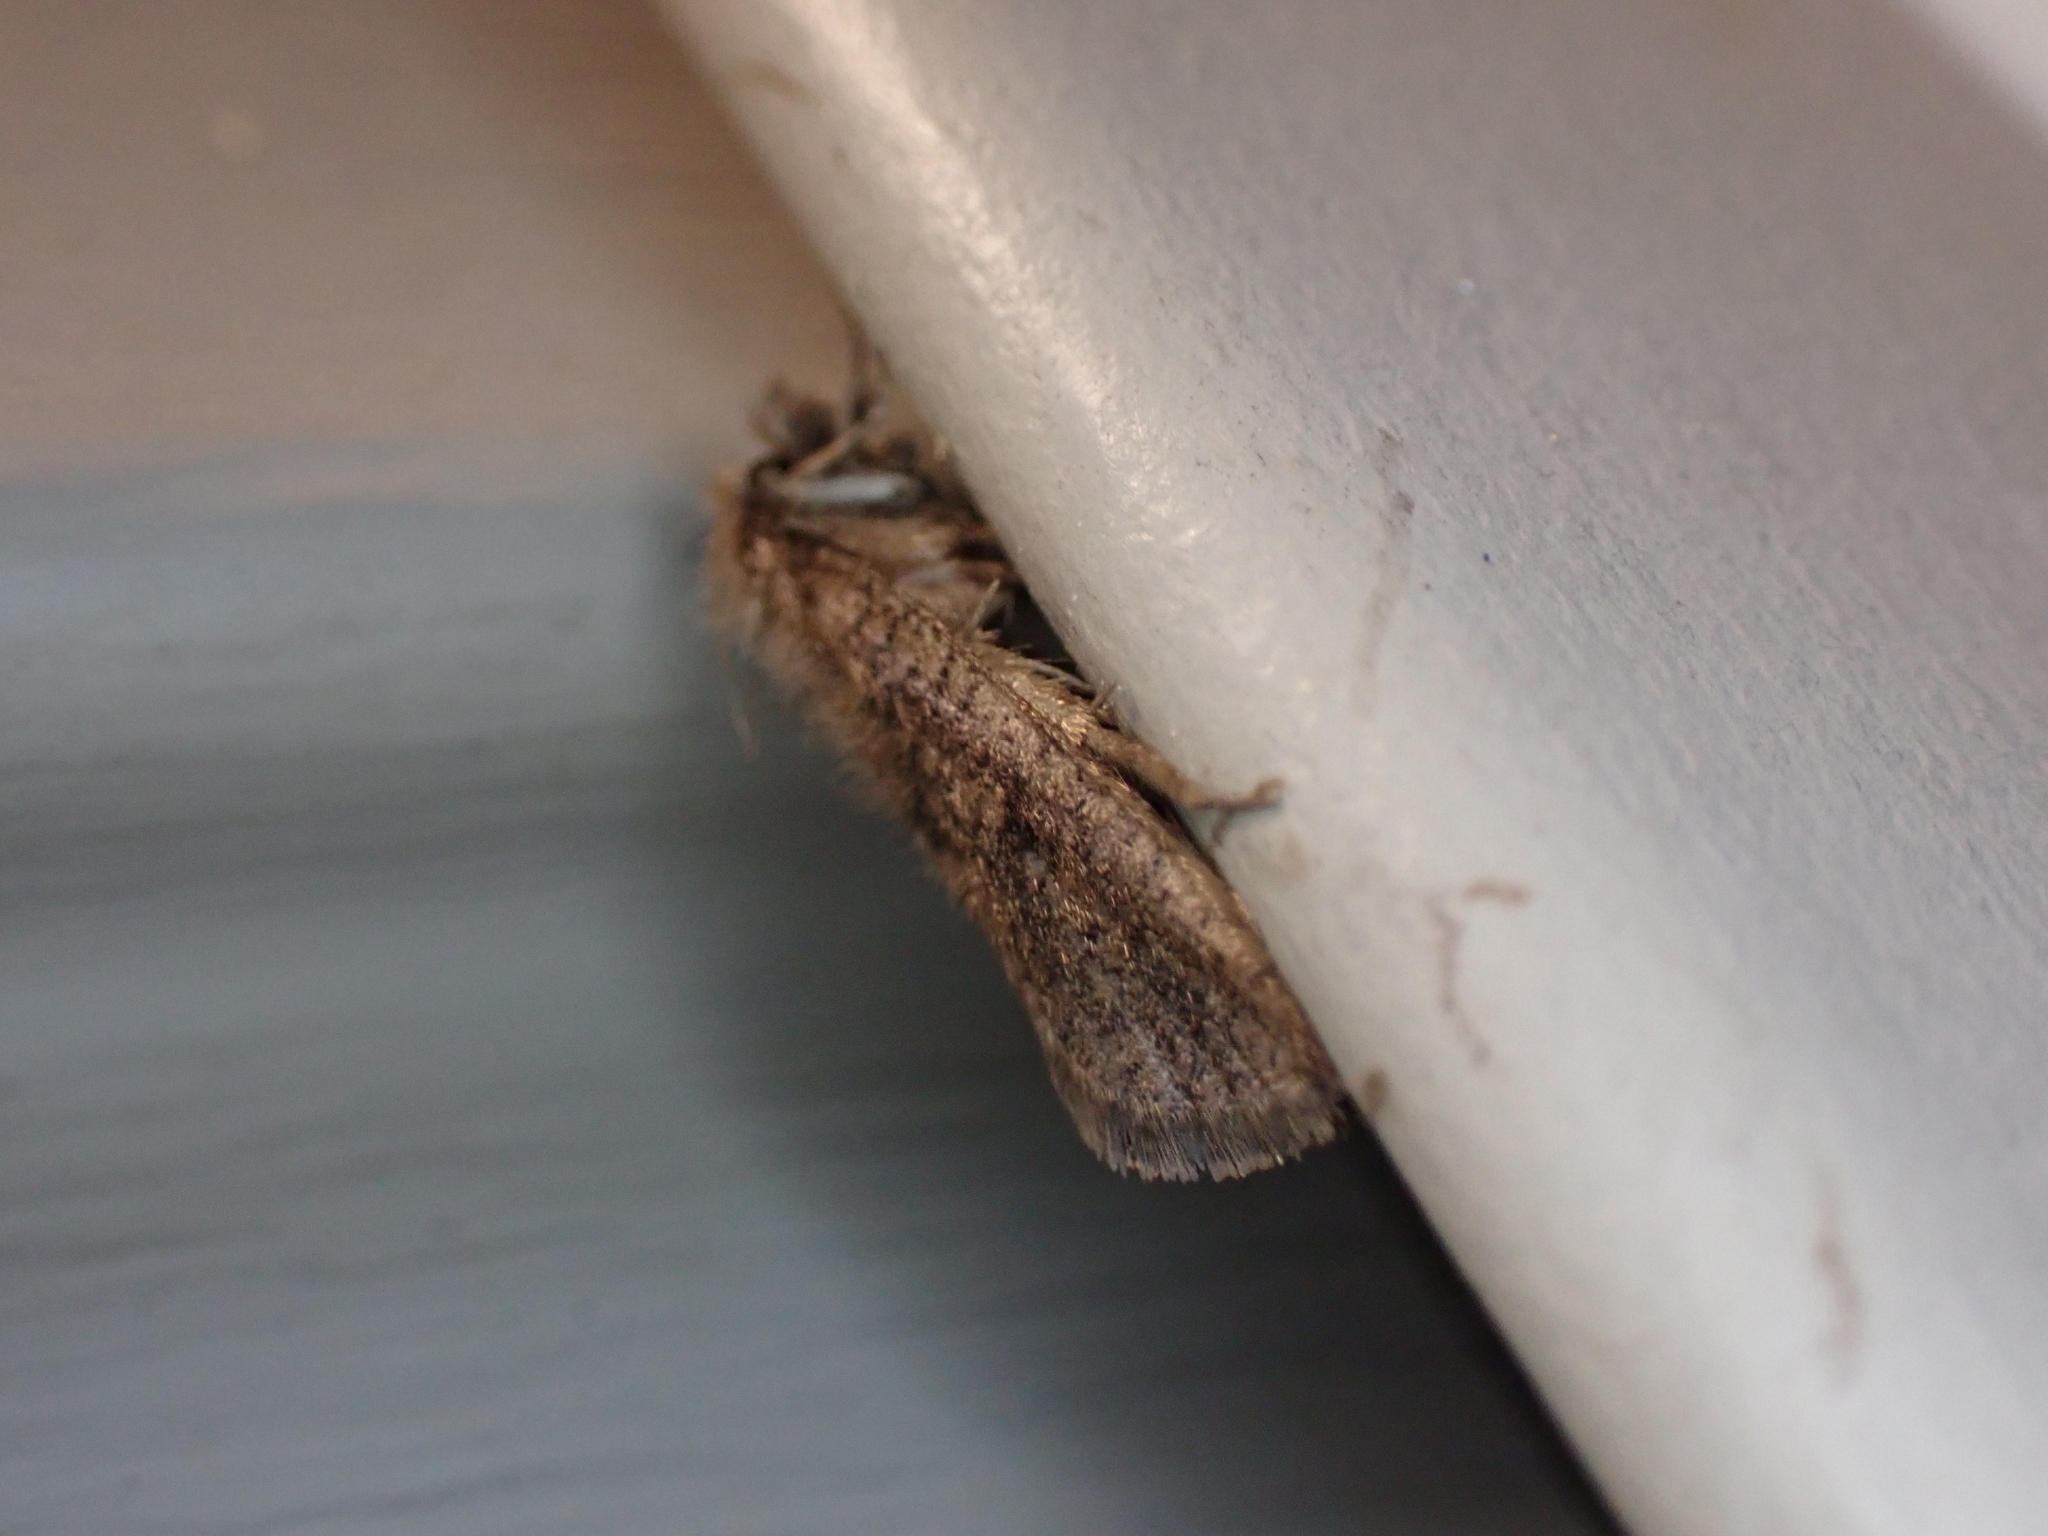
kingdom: Animalia
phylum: Arthropoda
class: Insecta
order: Lepidoptera
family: Tineidae
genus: Acrolophus
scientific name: Acrolophus propinqua
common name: Walsingham's grass tubeworm moth
